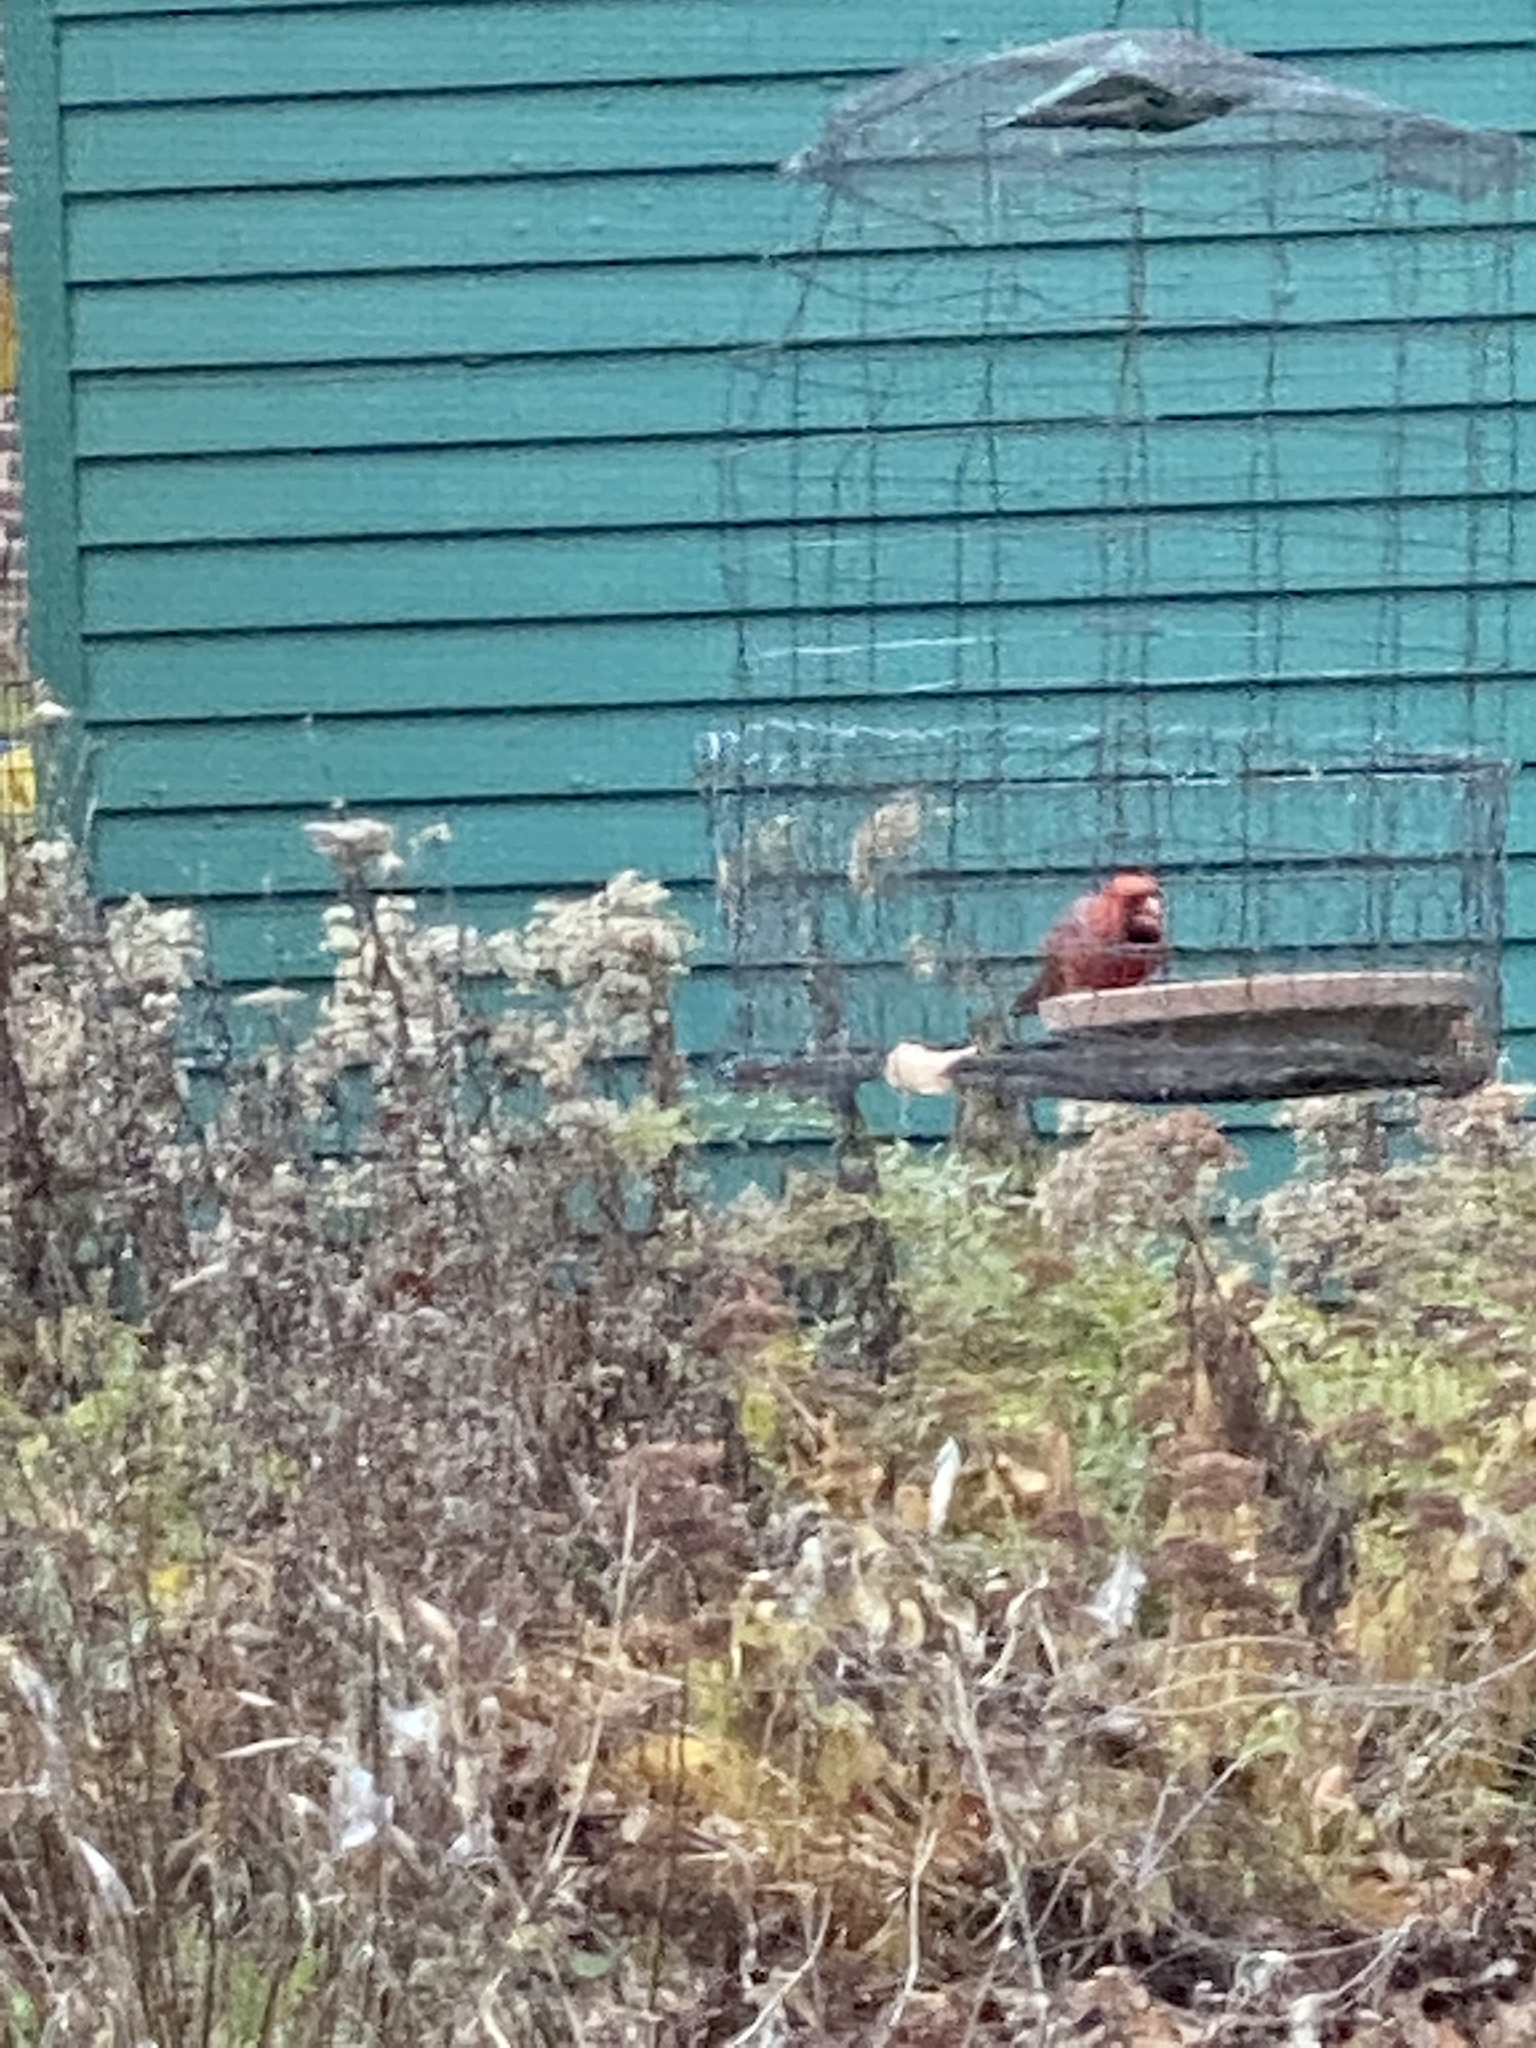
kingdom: Animalia
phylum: Chordata
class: Aves
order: Passeriformes
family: Cardinalidae
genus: Cardinalis
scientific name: Cardinalis cardinalis
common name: Northern cardinal
